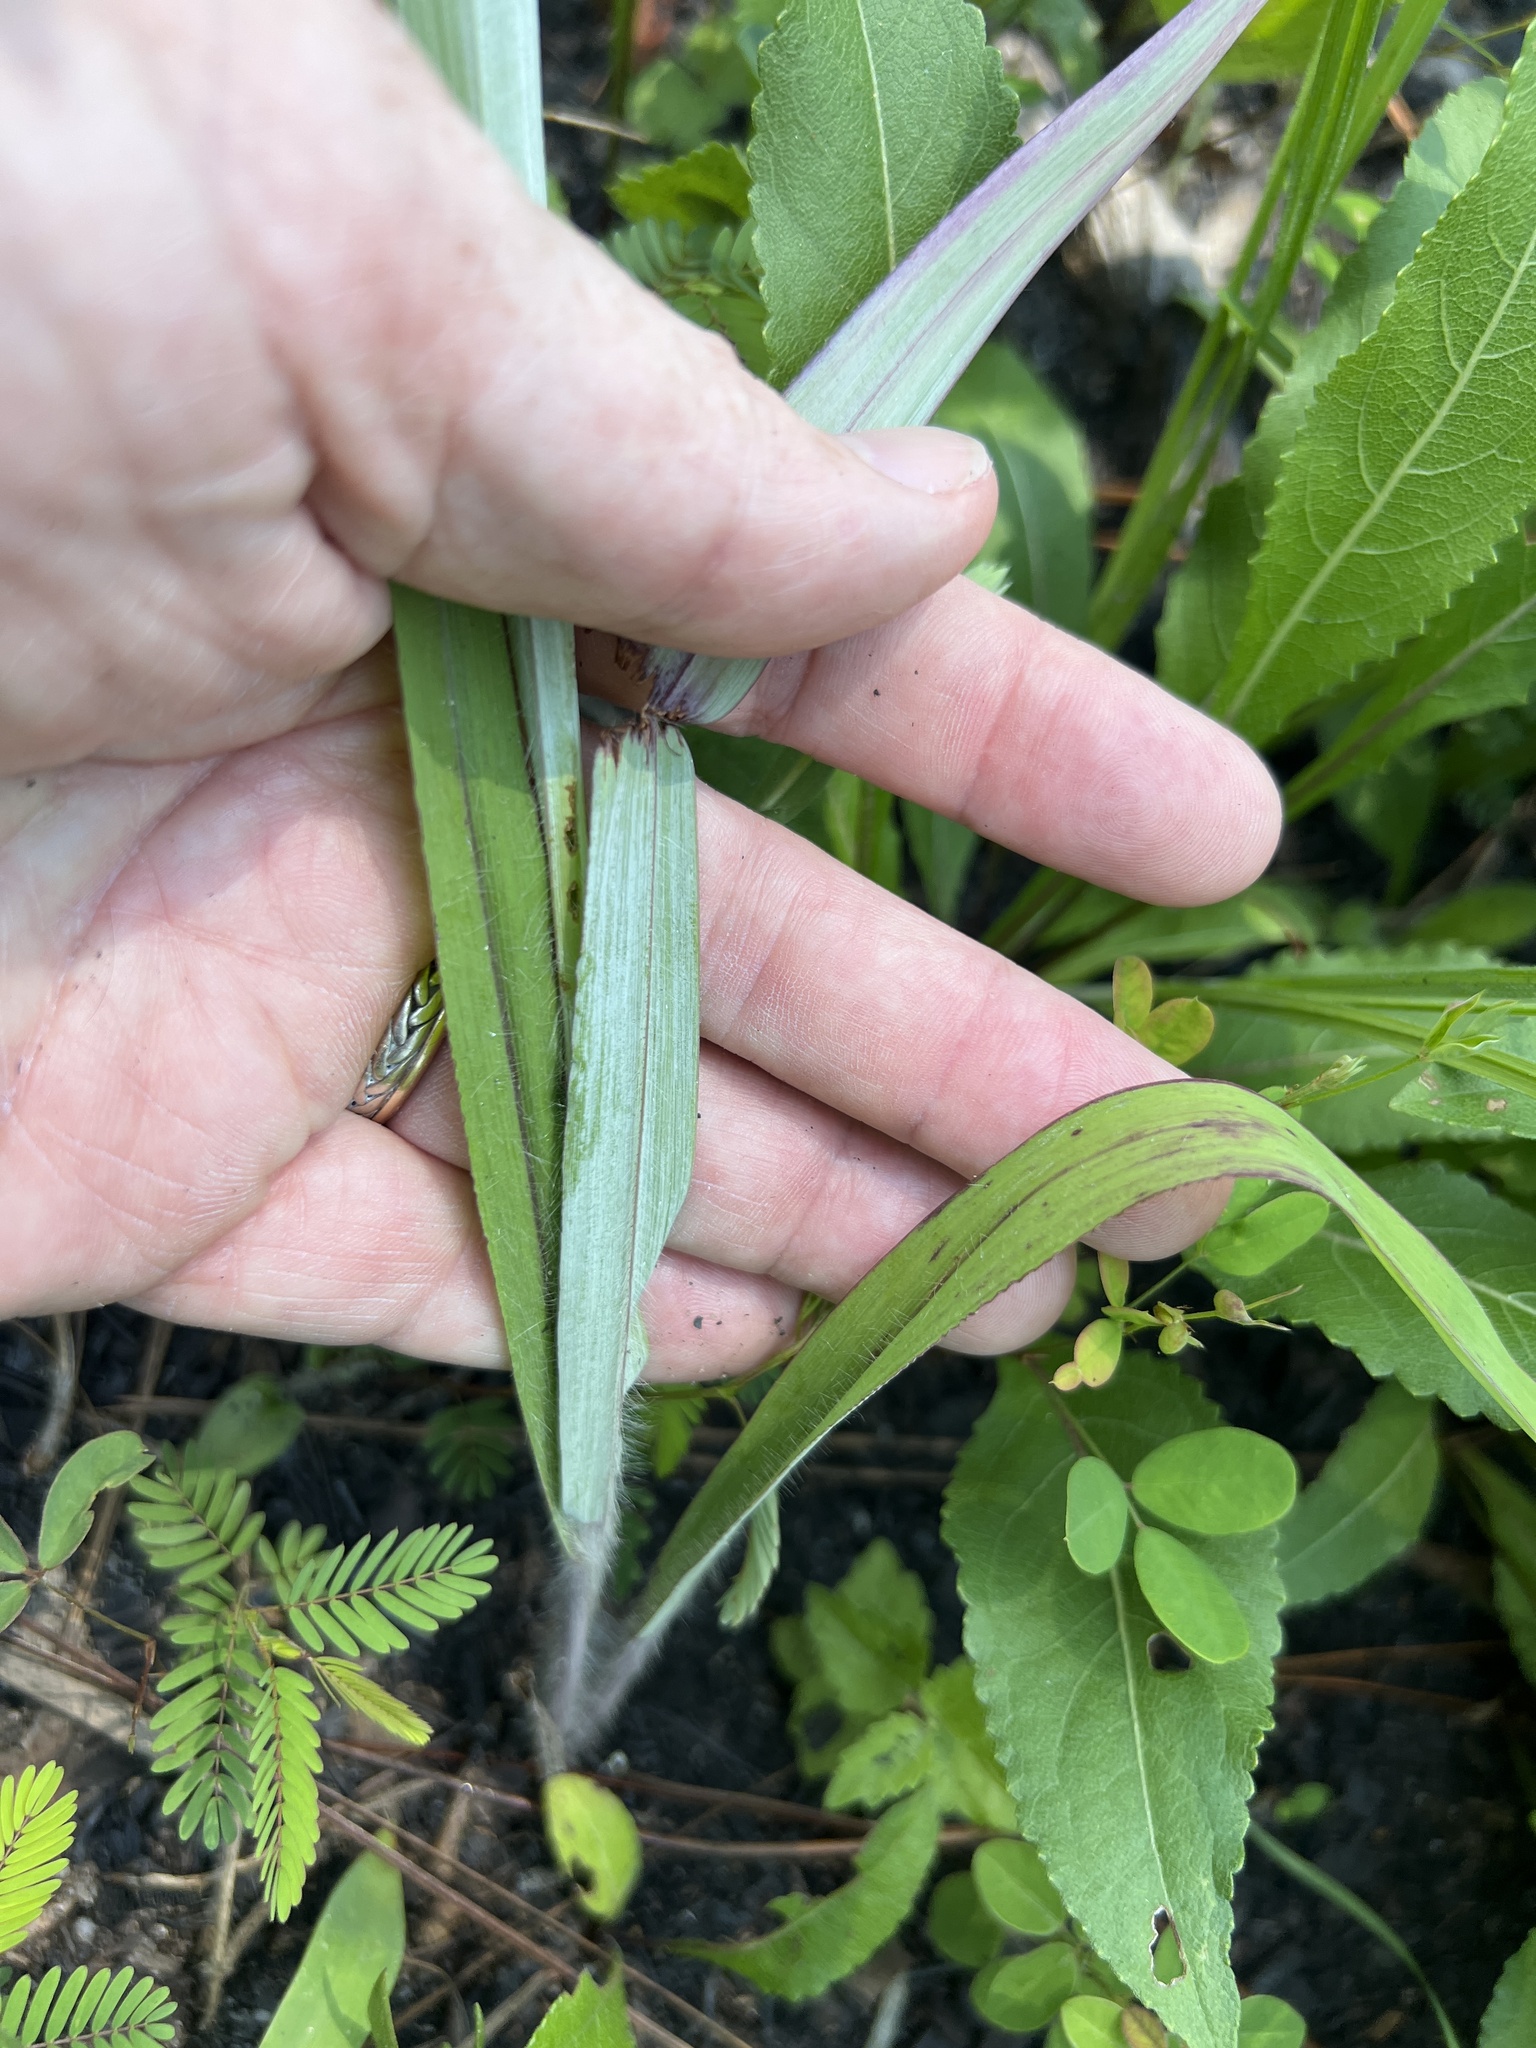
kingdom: Plantae
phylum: Tracheophyta
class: Liliopsida
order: Poales
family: Poaceae
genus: Paspalum
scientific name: Paspalum bifidum
